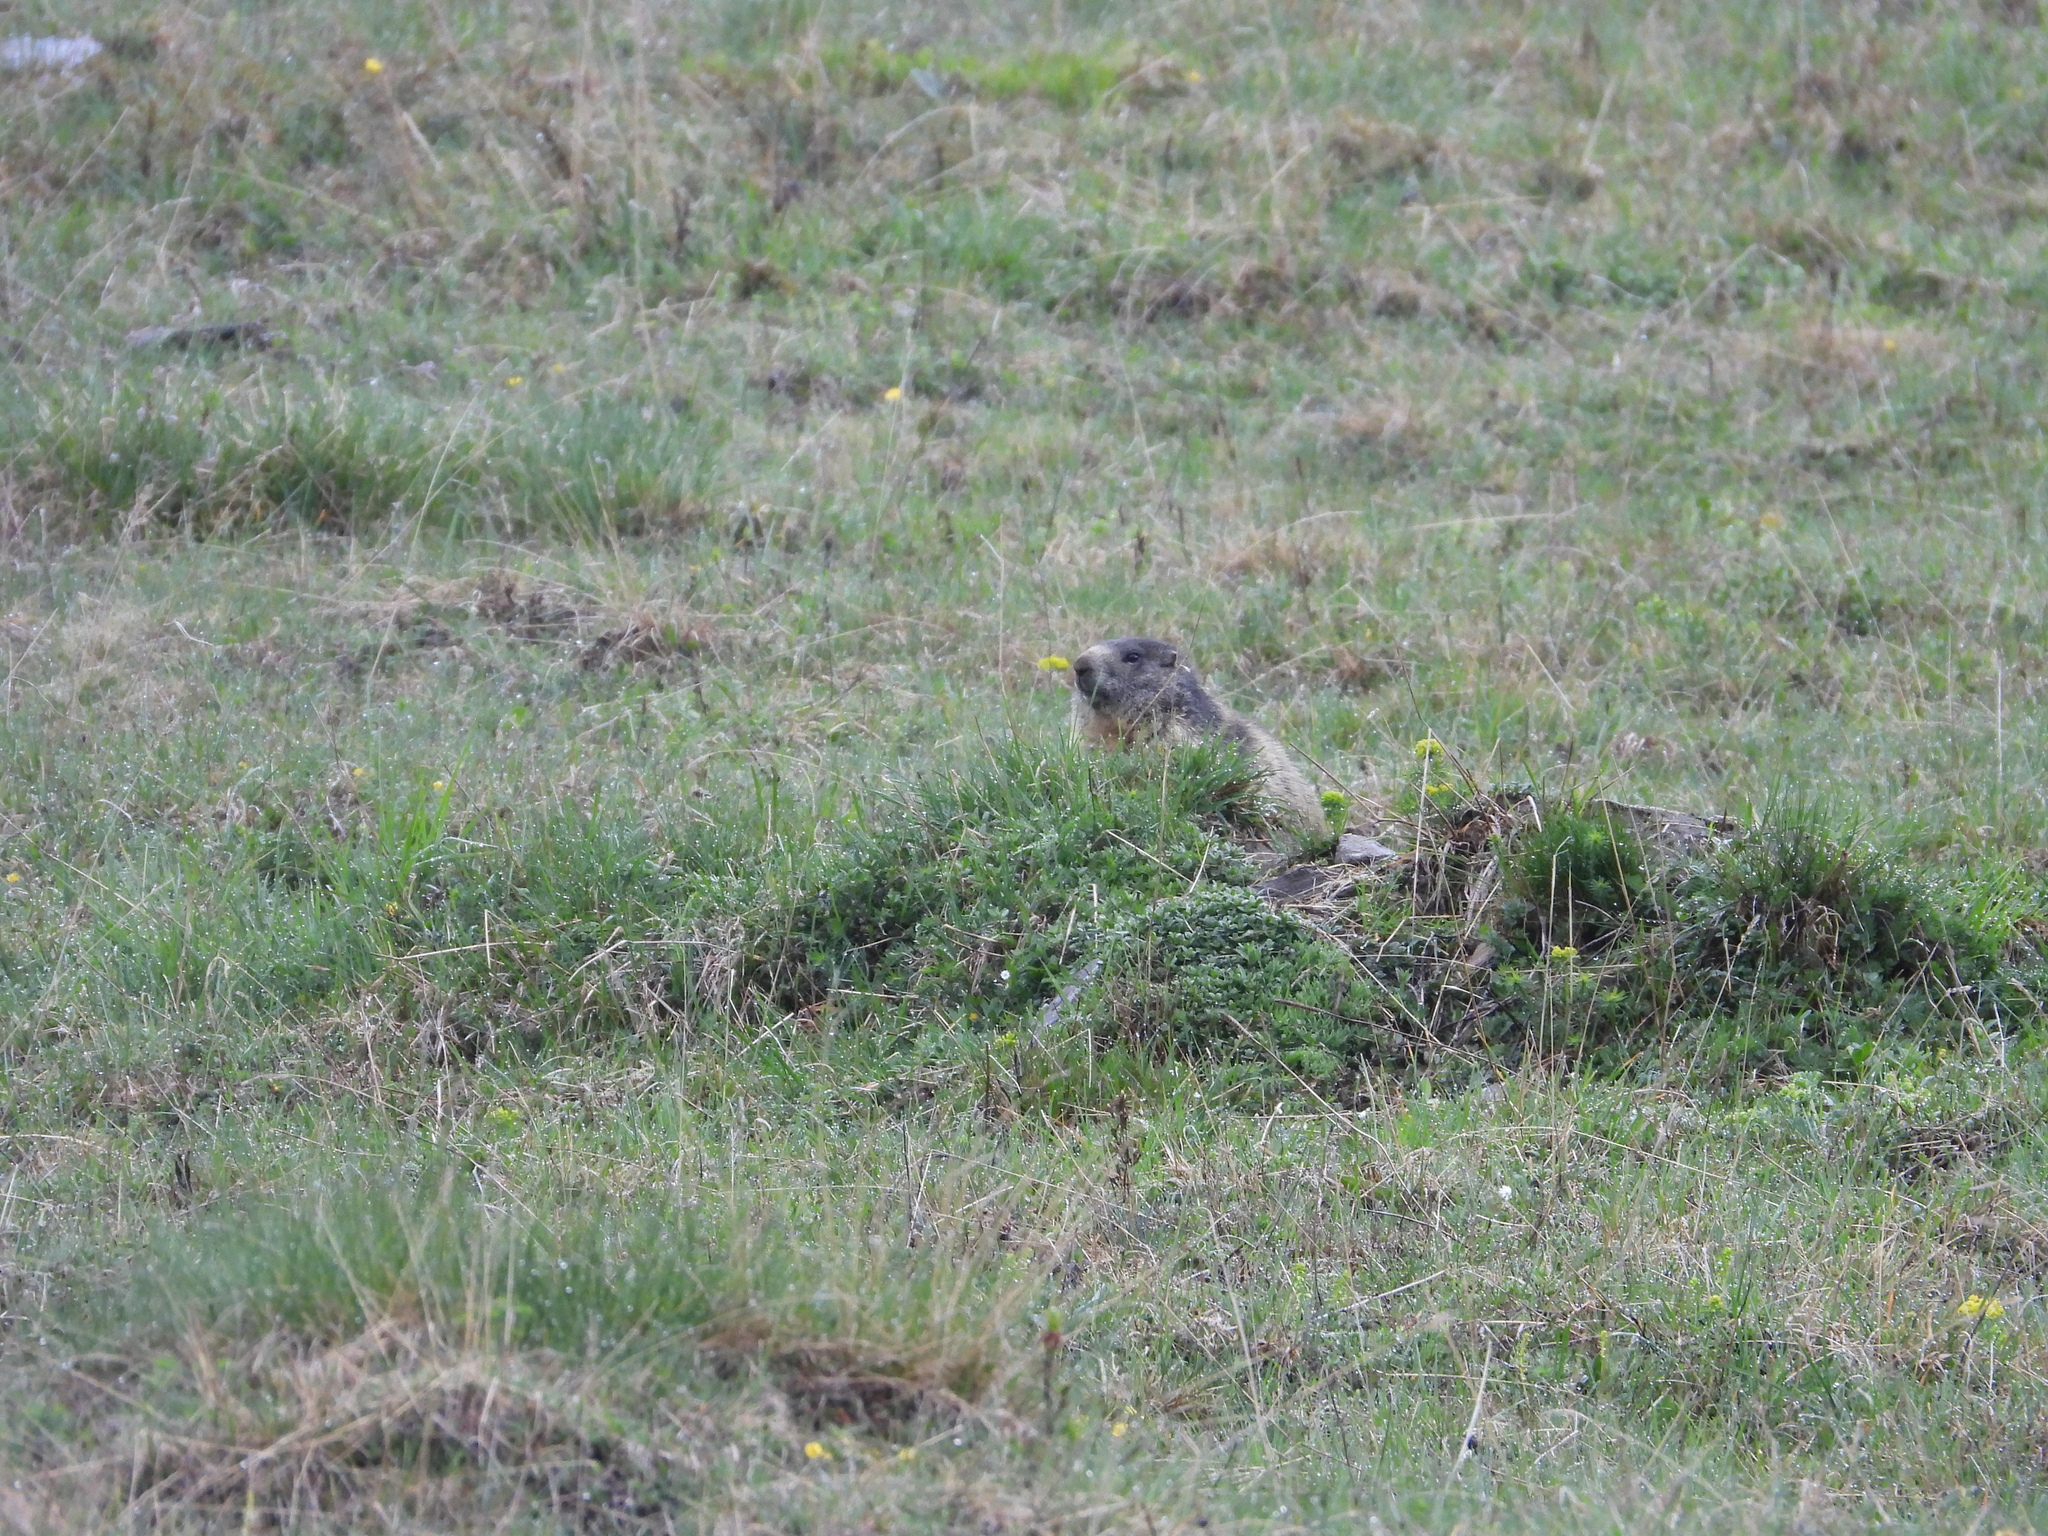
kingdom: Animalia
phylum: Chordata
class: Mammalia
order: Rodentia
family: Sciuridae
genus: Marmota
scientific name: Marmota marmota
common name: Alpine marmot
